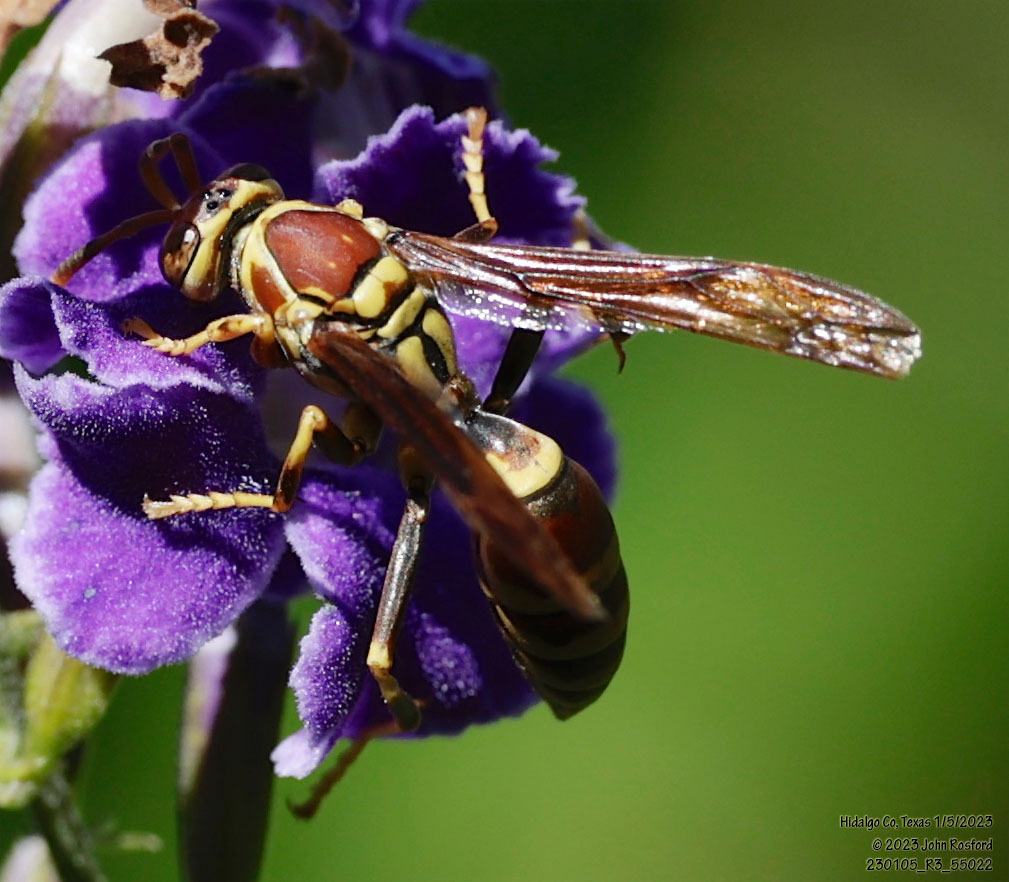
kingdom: Animalia
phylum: Arthropoda
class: Insecta
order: Hymenoptera
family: Eumenidae
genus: Polistes
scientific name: Polistes exclamans
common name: Paper wasp
